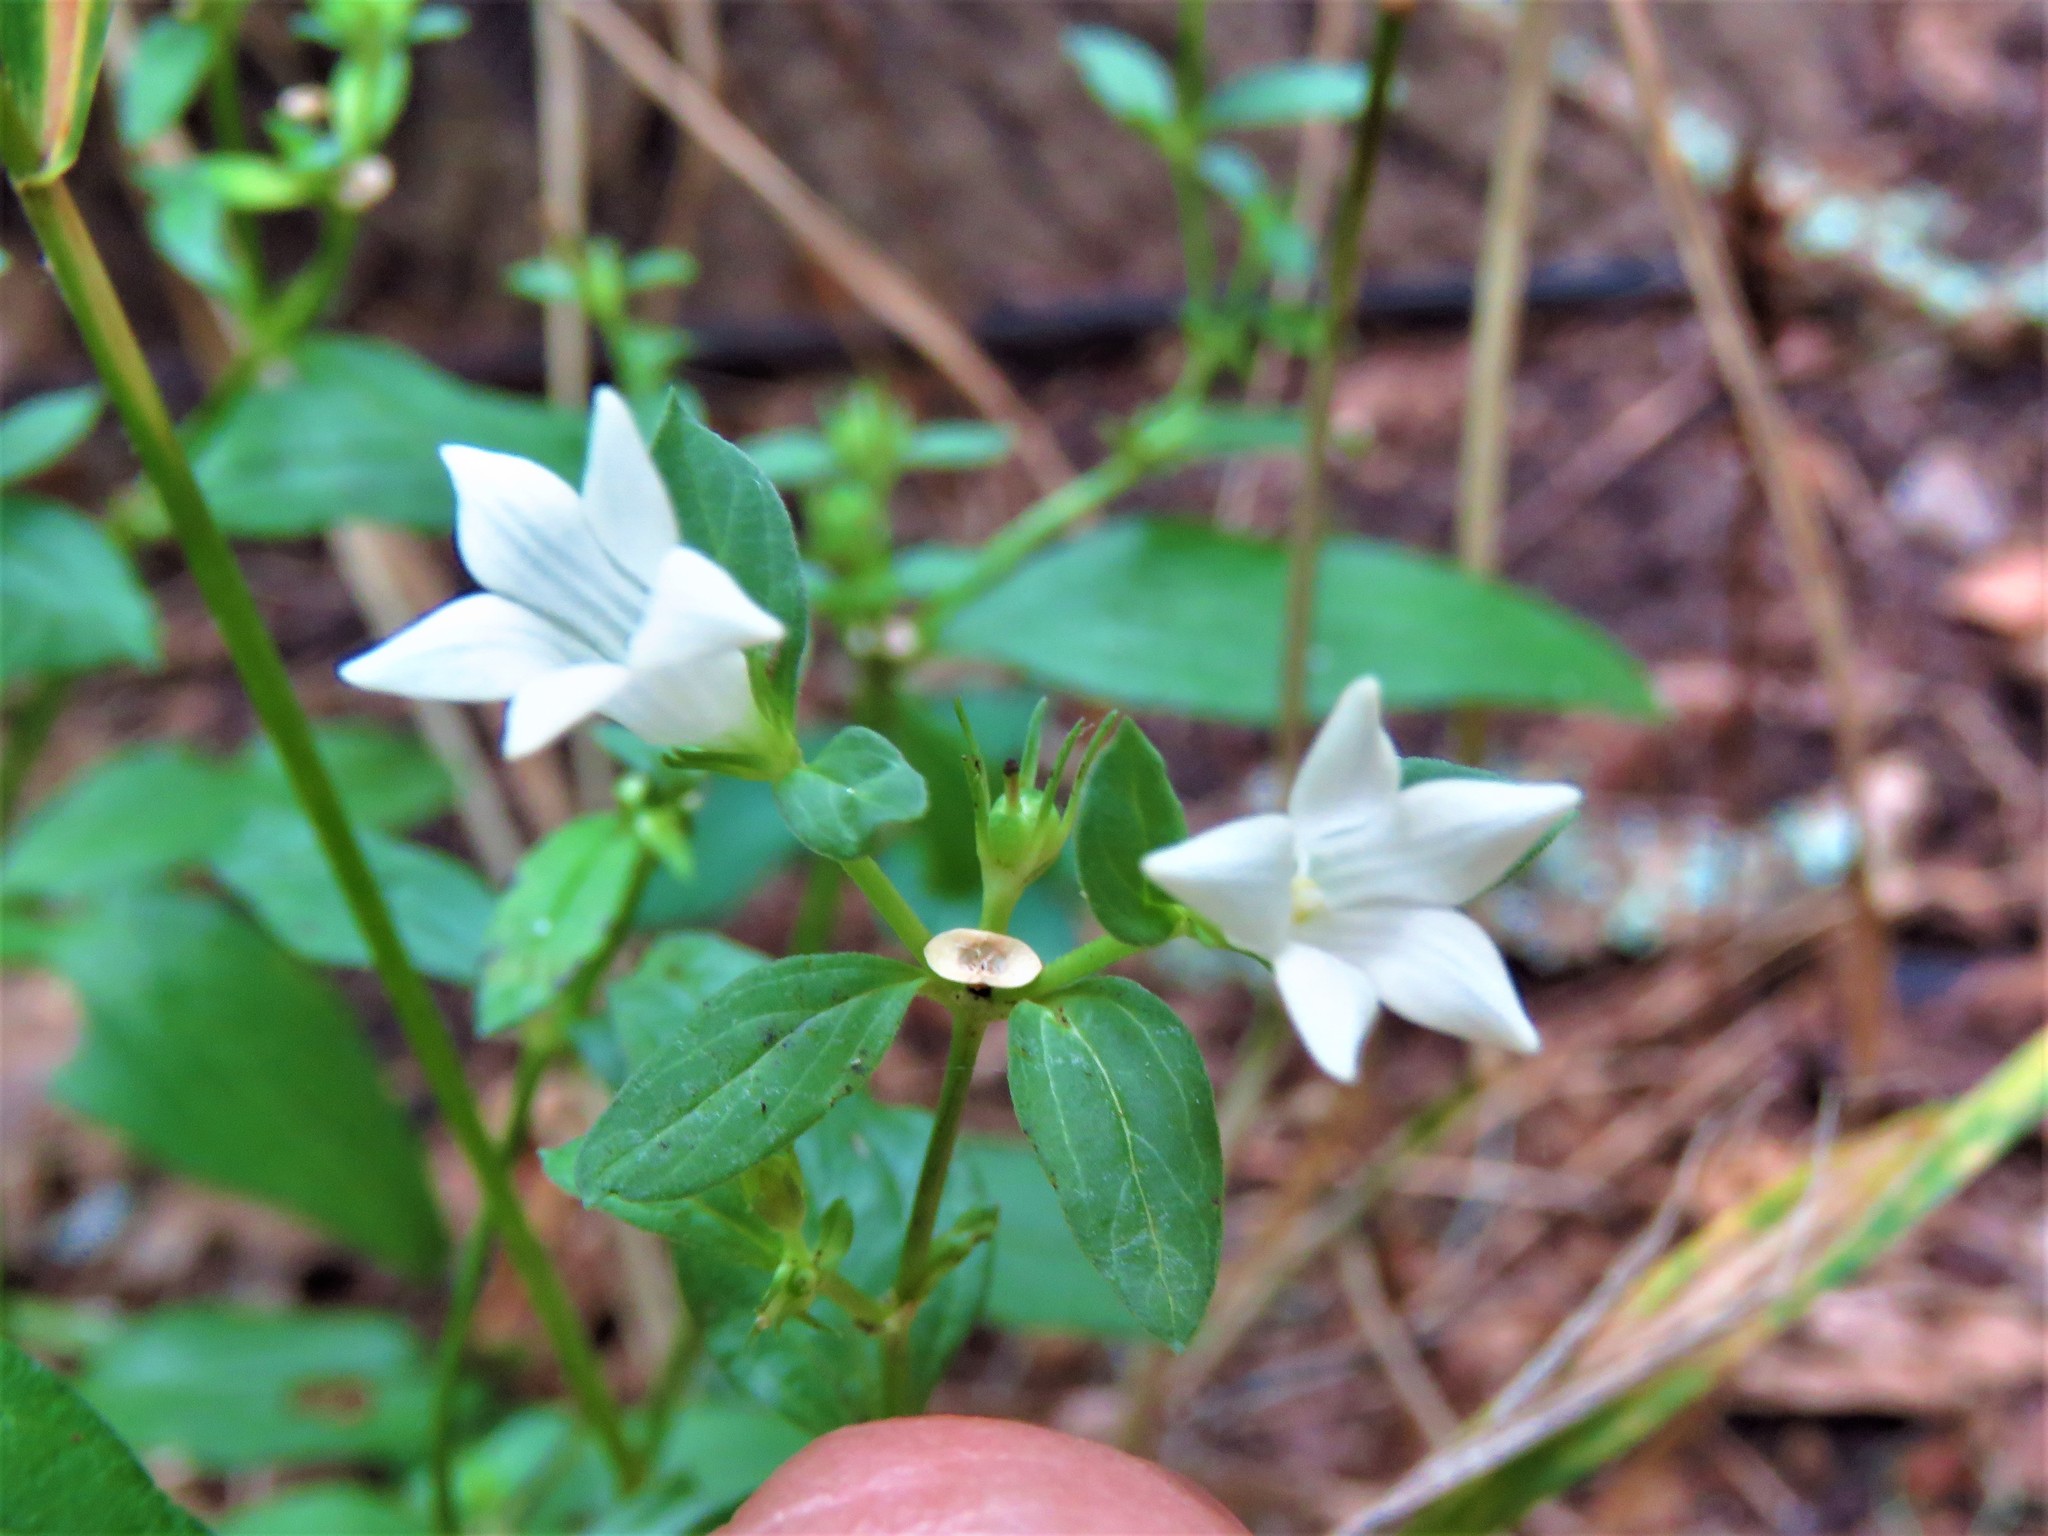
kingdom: Plantae
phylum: Tracheophyta
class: Magnoliopsida
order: Gentianales
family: Loganiaceae
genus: Spigelia
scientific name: Spigelia texana
